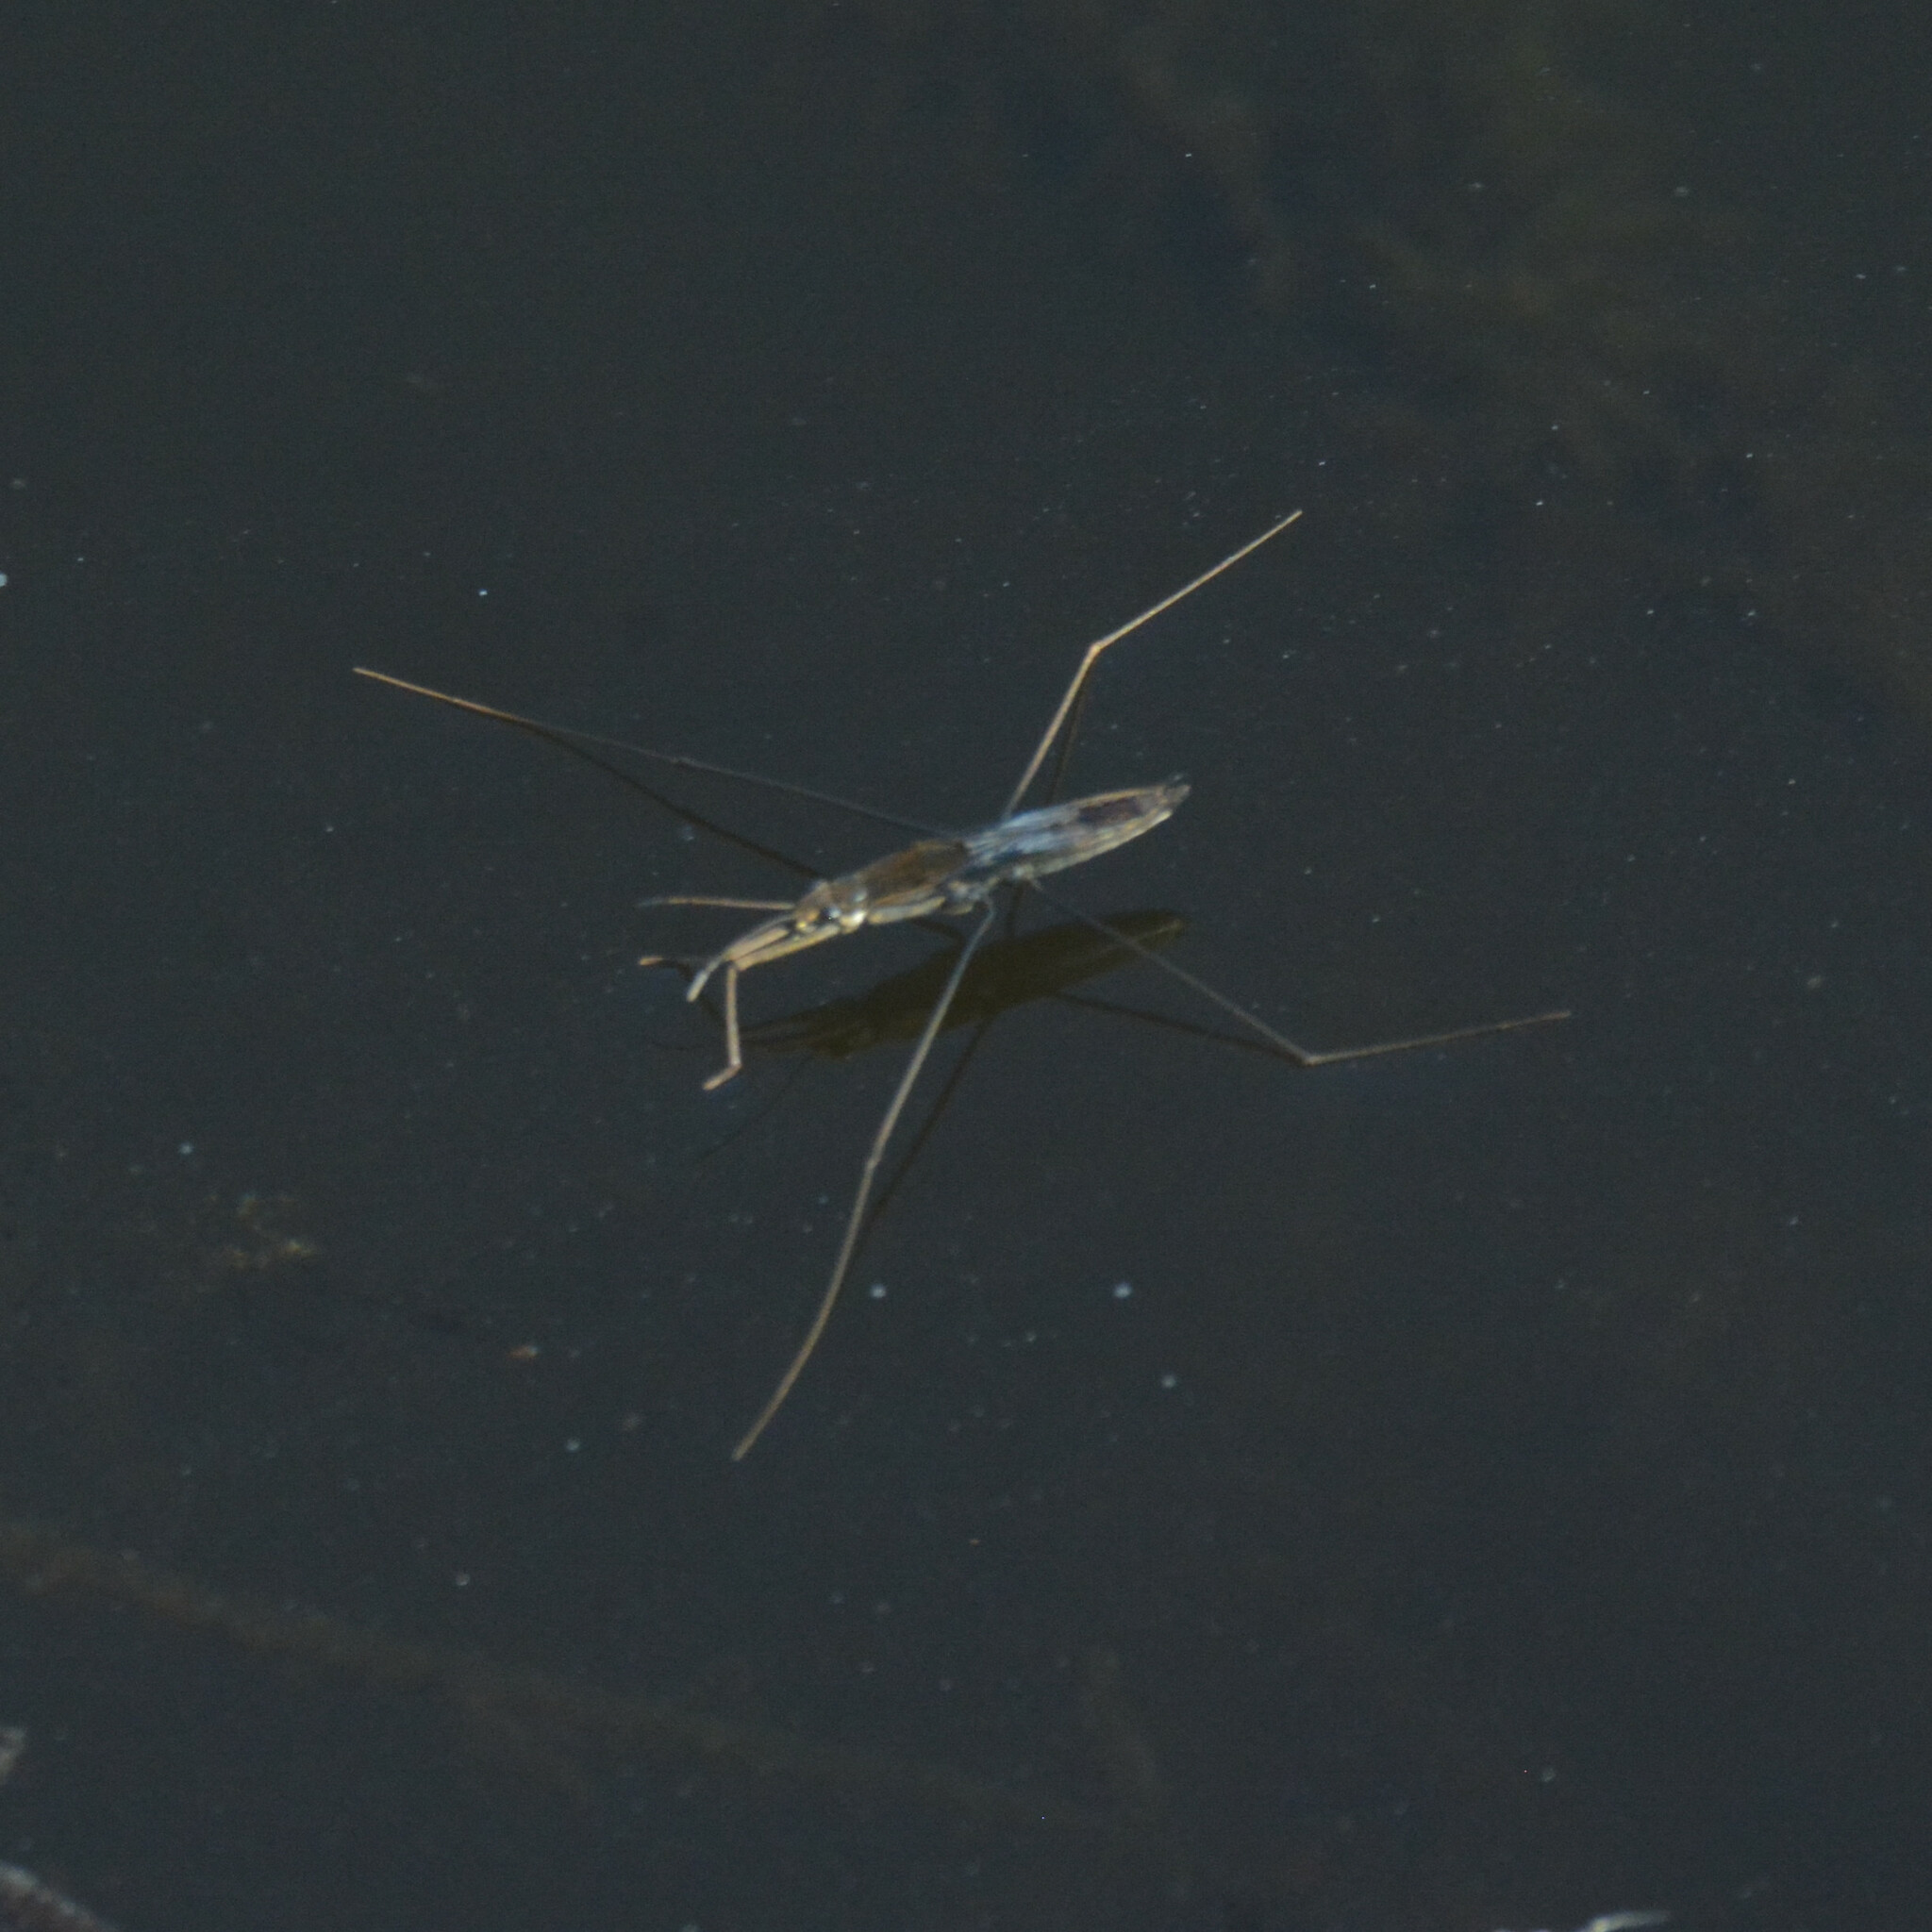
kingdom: Animalia
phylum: Arthropoda
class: Insecta
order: Hemiptera
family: Gerridae
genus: Aquarius
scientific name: Aquarius paludum
